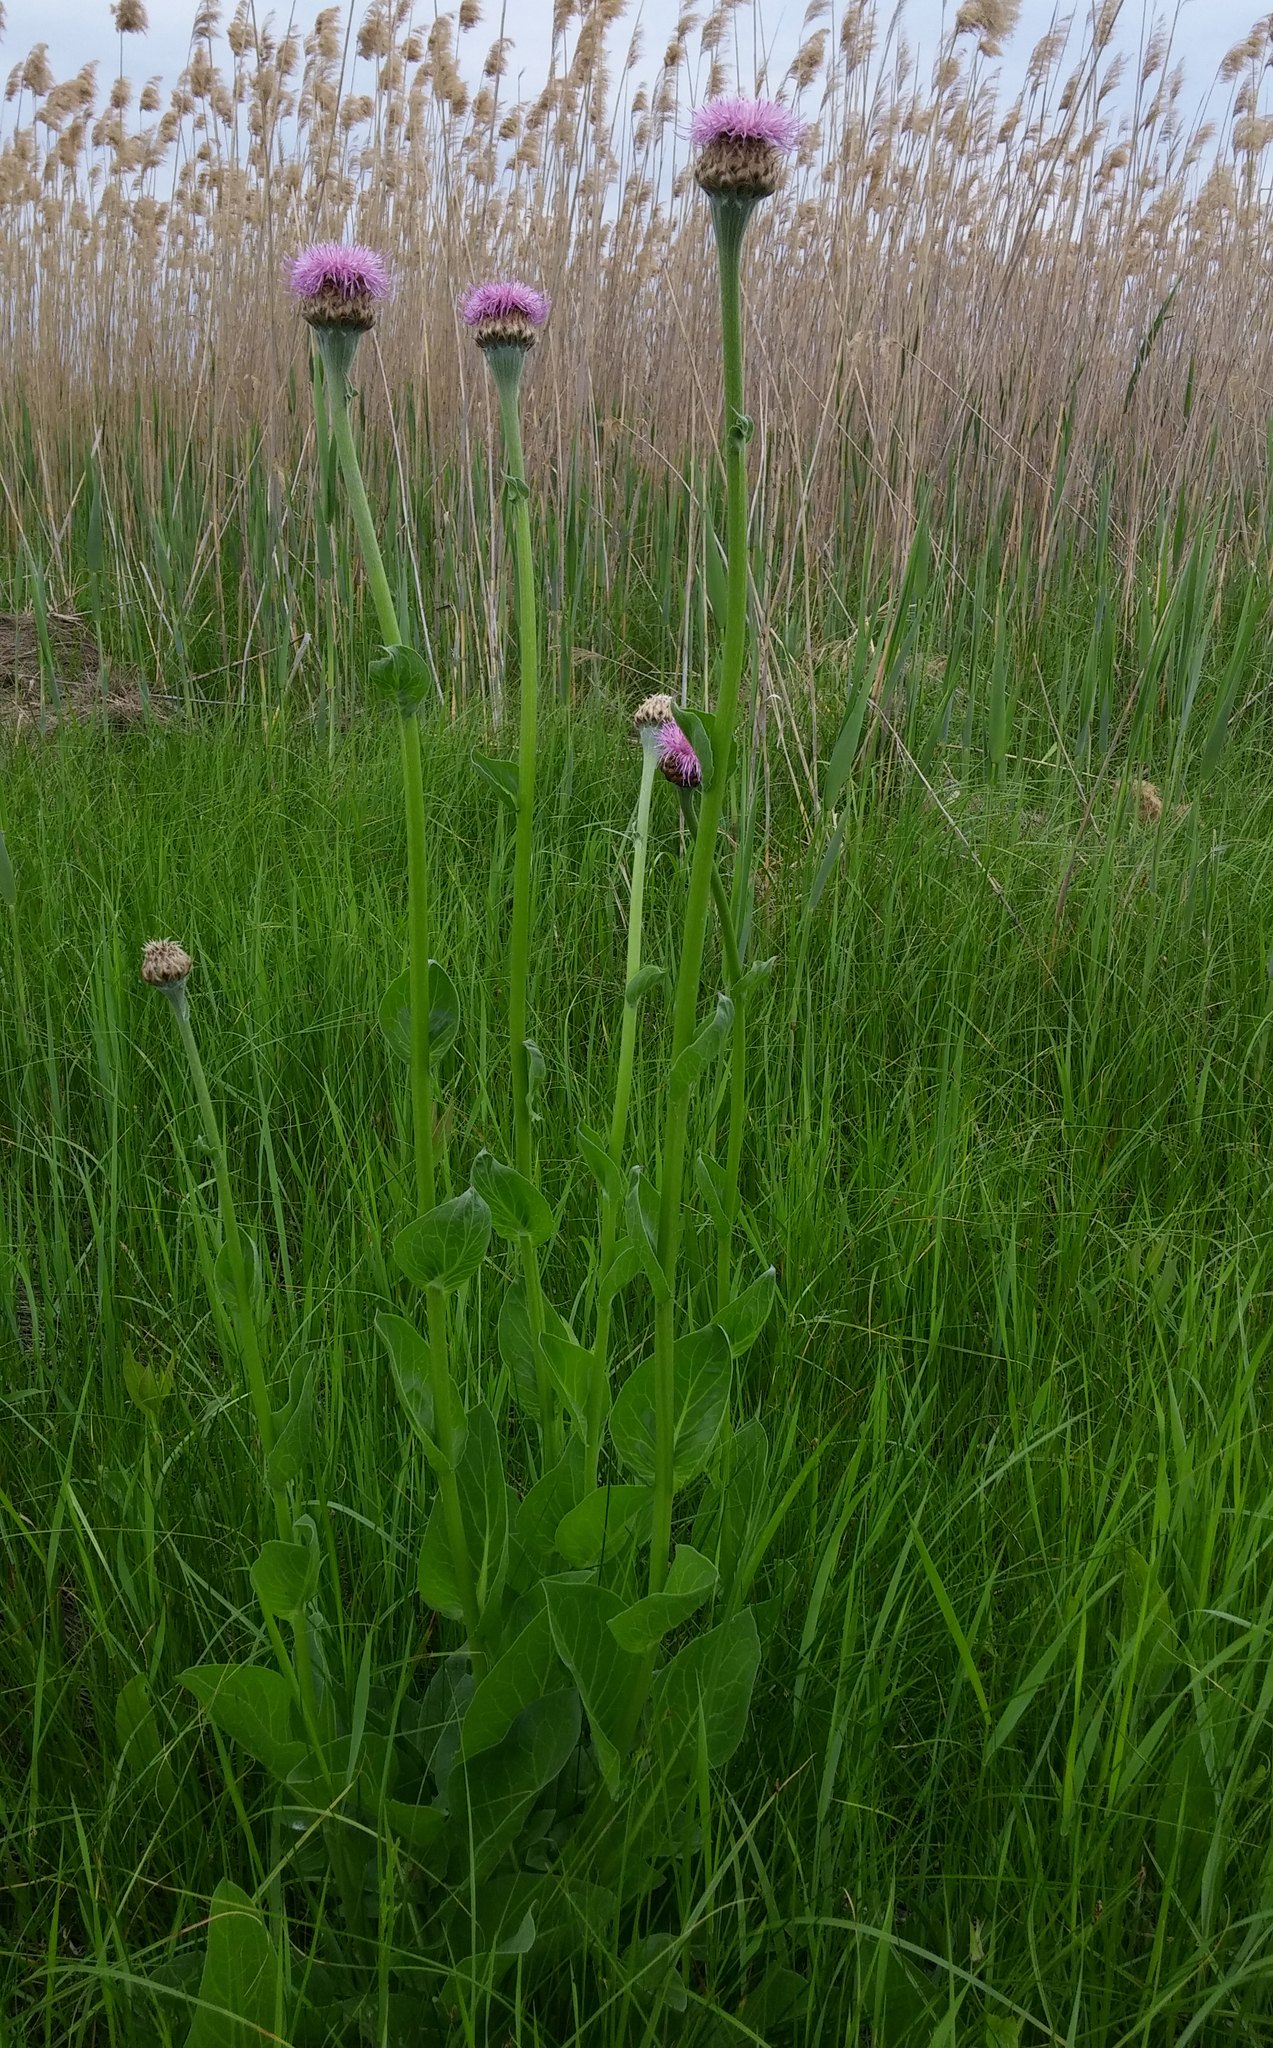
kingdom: Plantae
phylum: Tracheophyta
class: Magnoliopsida
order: Asterales
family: Asteraceae
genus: Leuzea
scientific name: Leuzea carthamoides
